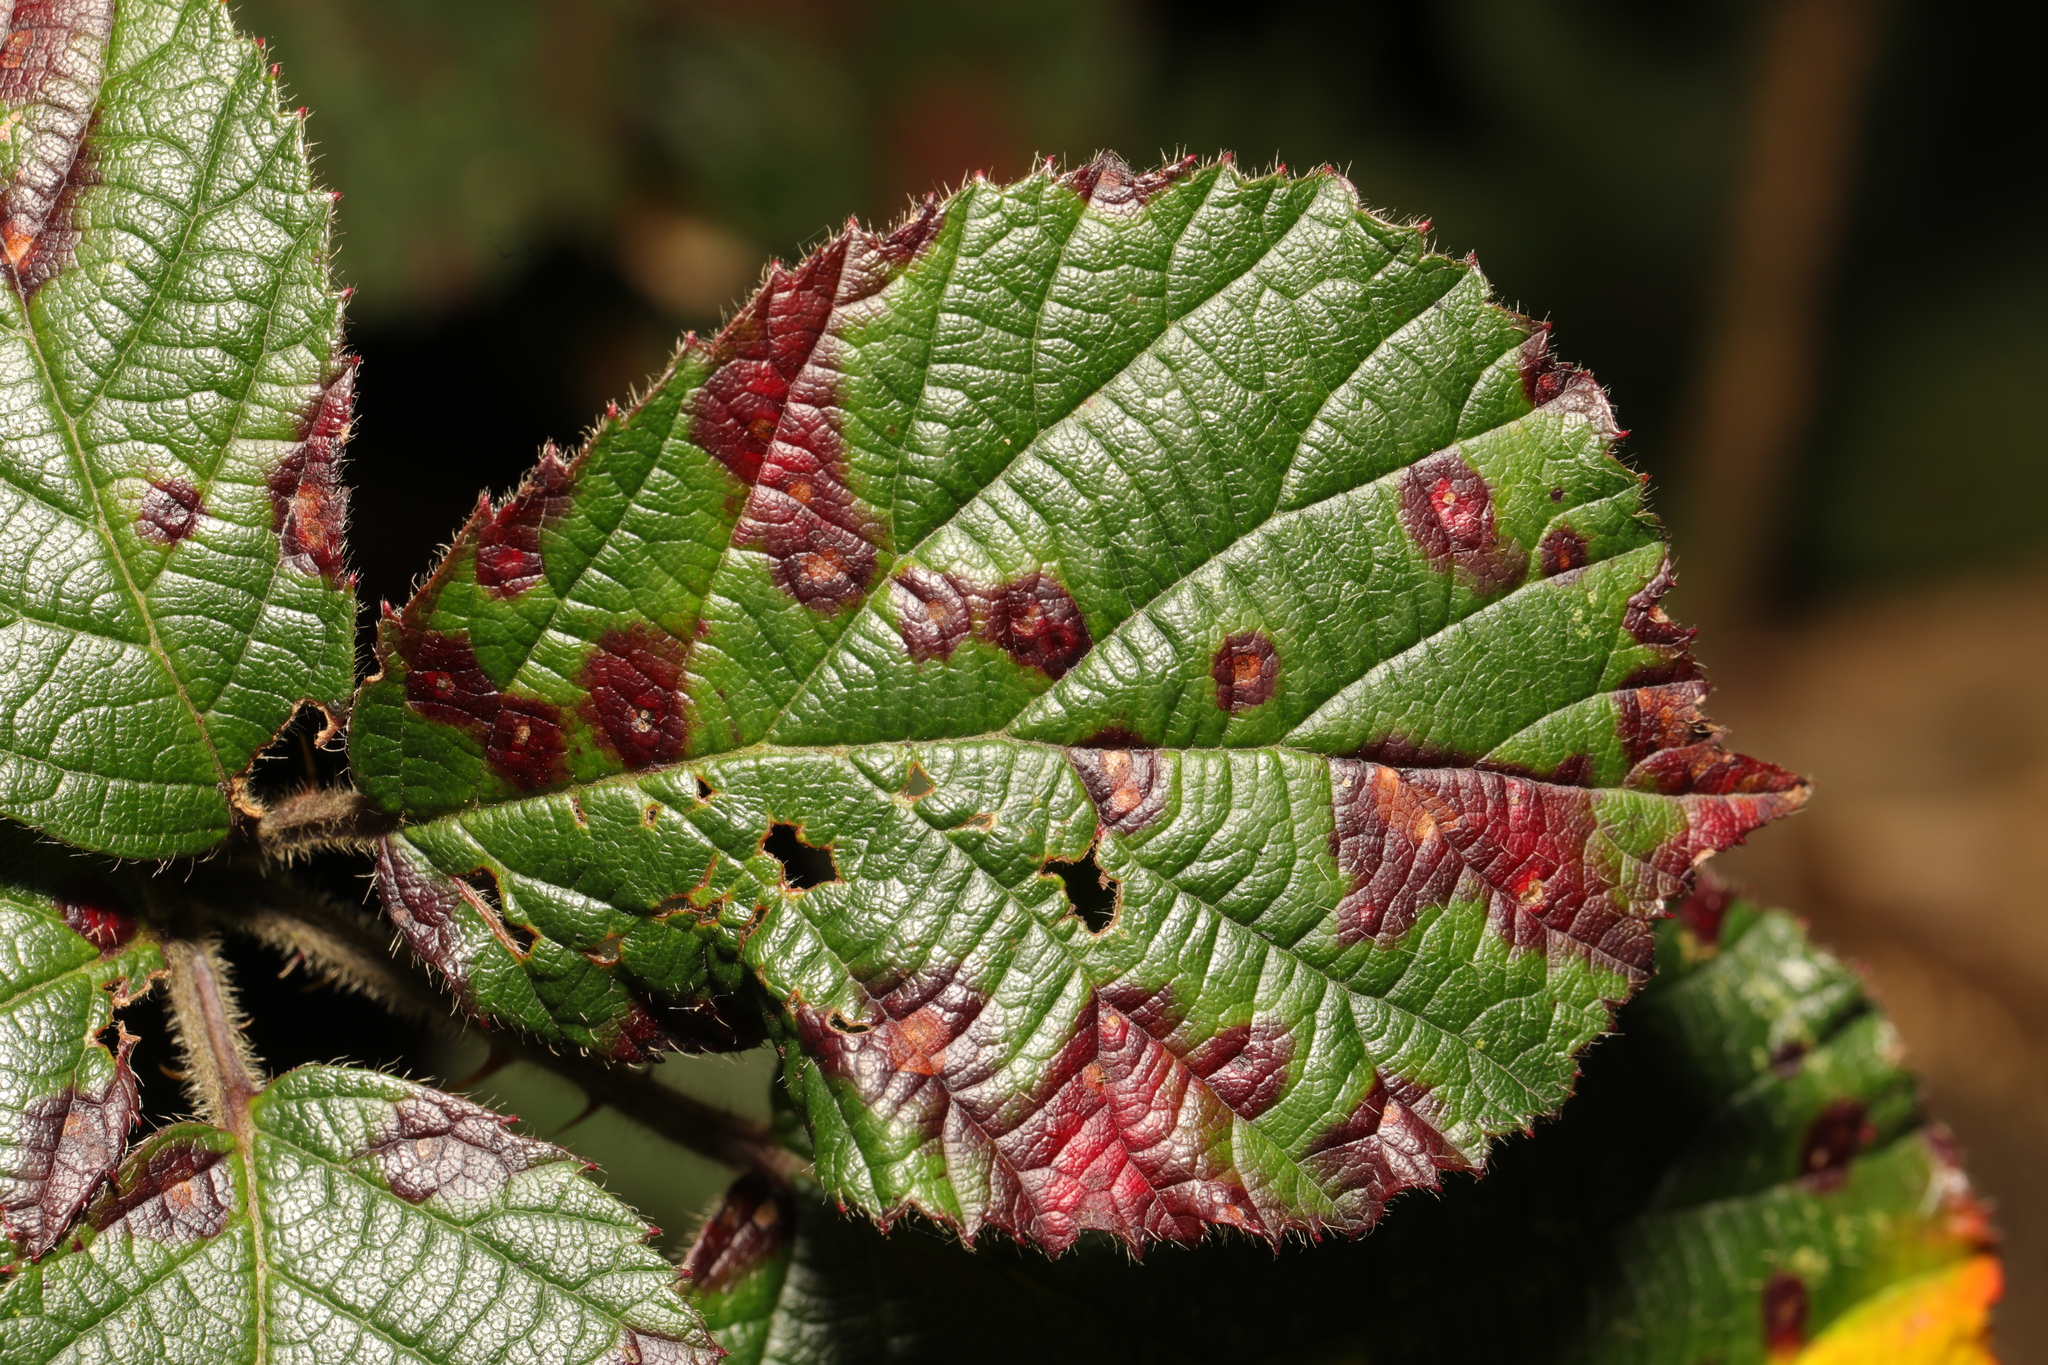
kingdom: Fungi
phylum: Basidiomycota
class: Pucciniomycetes
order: Pucciniales
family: Phragmidiaceae
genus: Phragmidium
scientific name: Phragmidium violaceum
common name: Violet bramble rust
